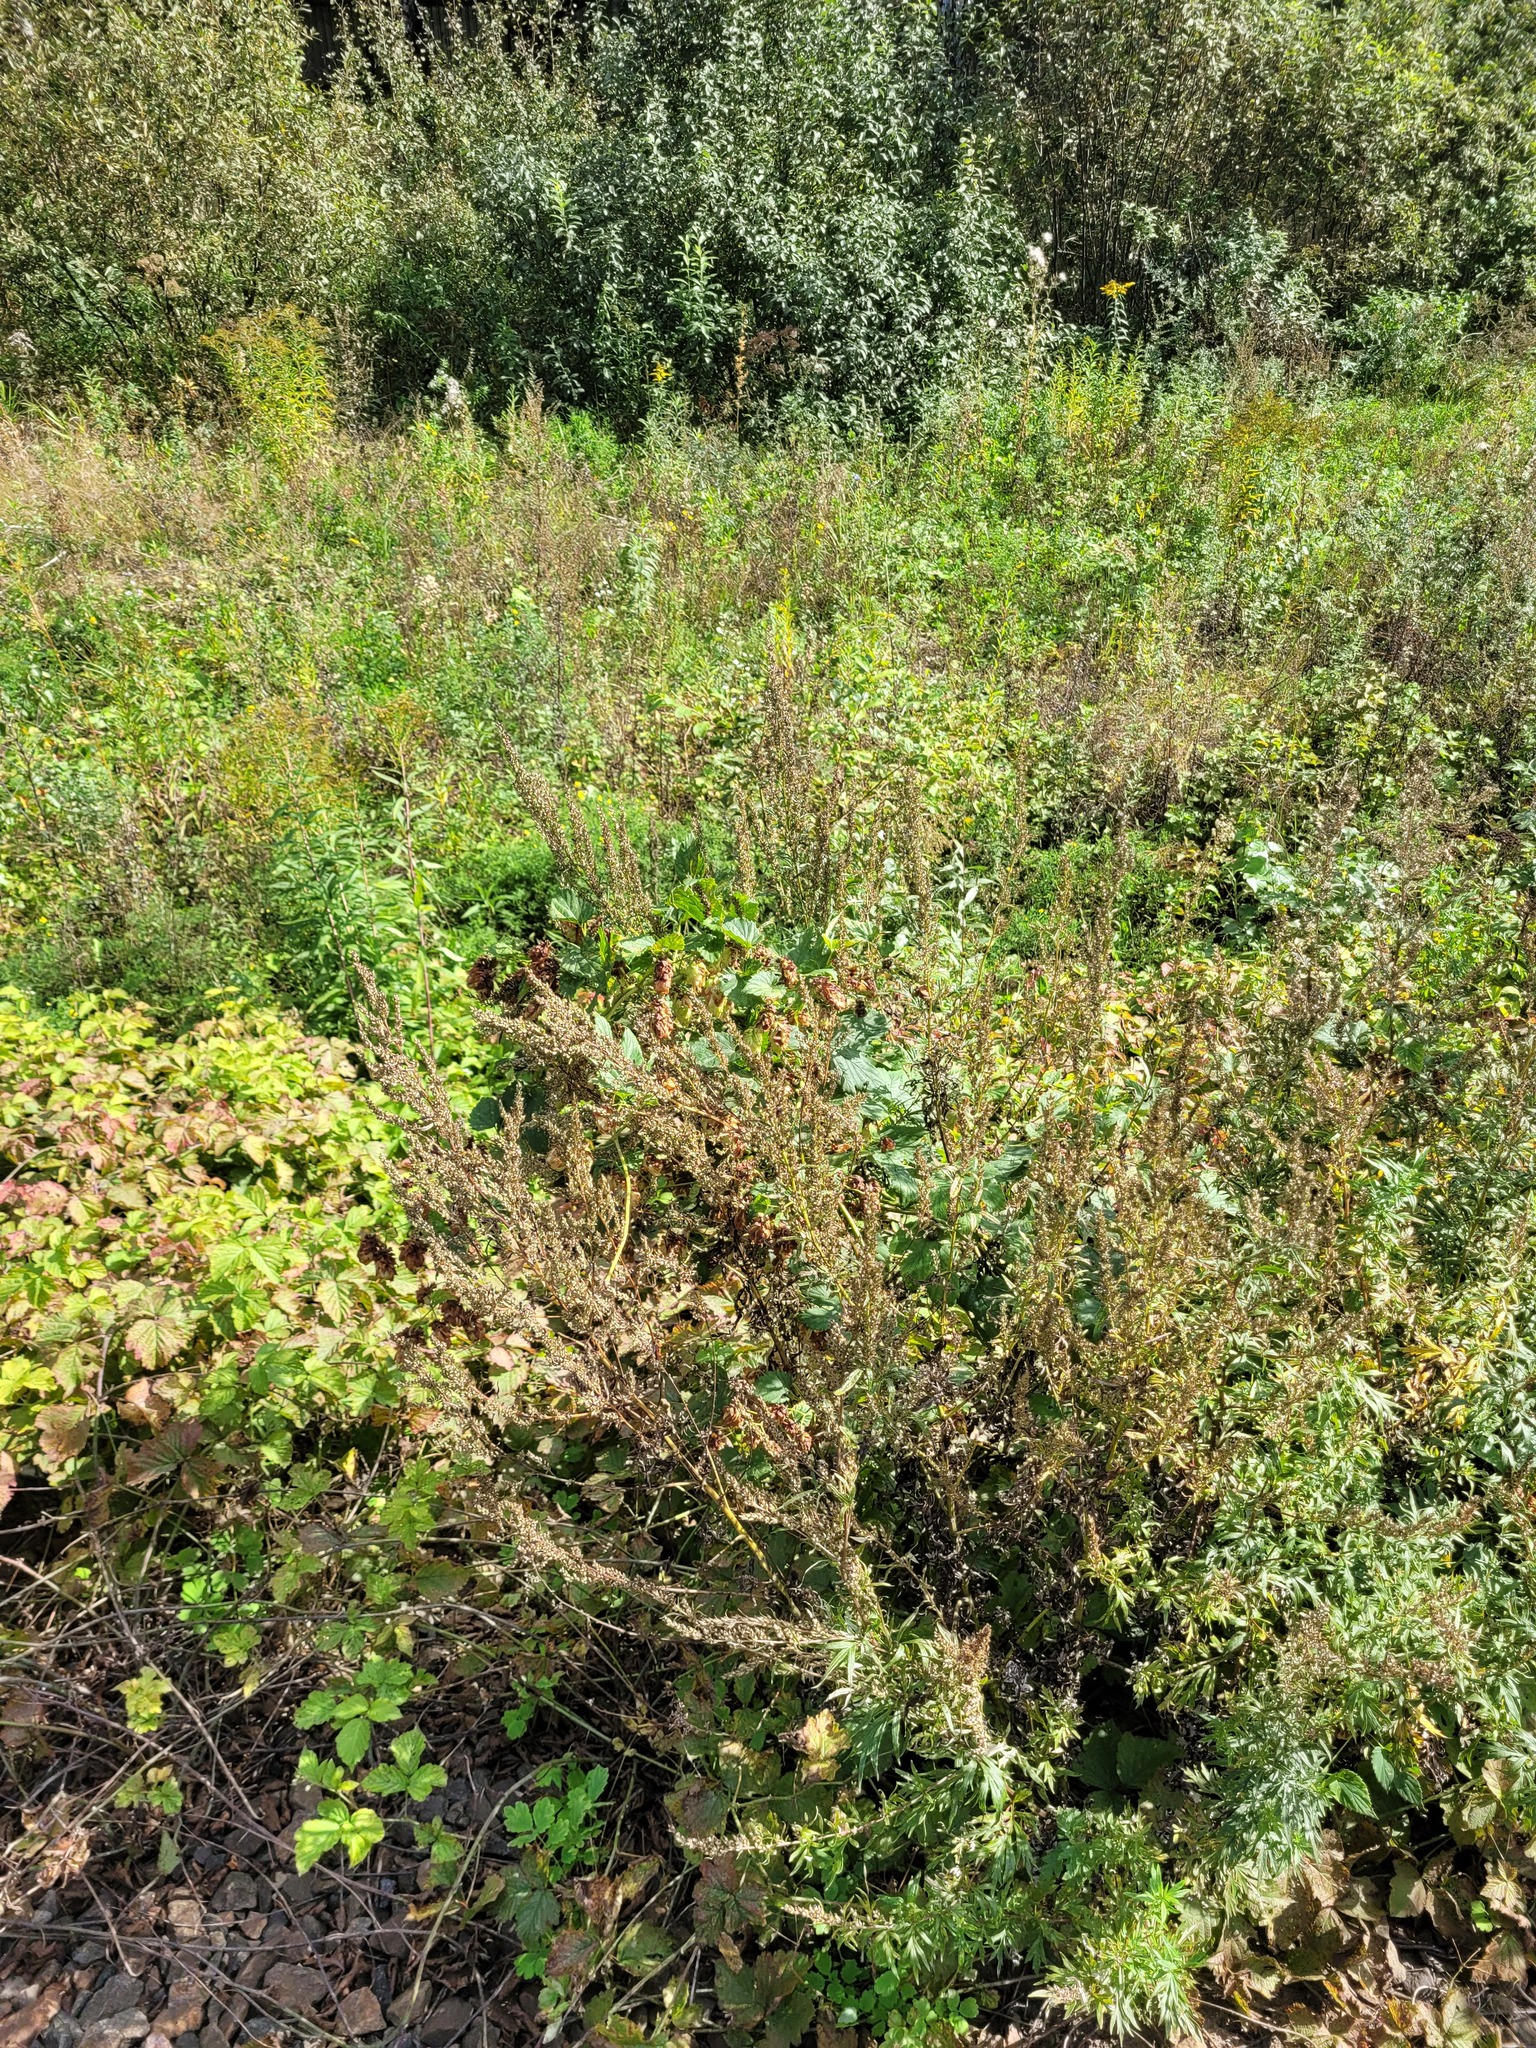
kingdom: Plantae
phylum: Tracheophyta
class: Magnoliopsida
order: Asterales
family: Asteraceae
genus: Artemisia
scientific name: Artemisia vulgaris
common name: Mugwort
